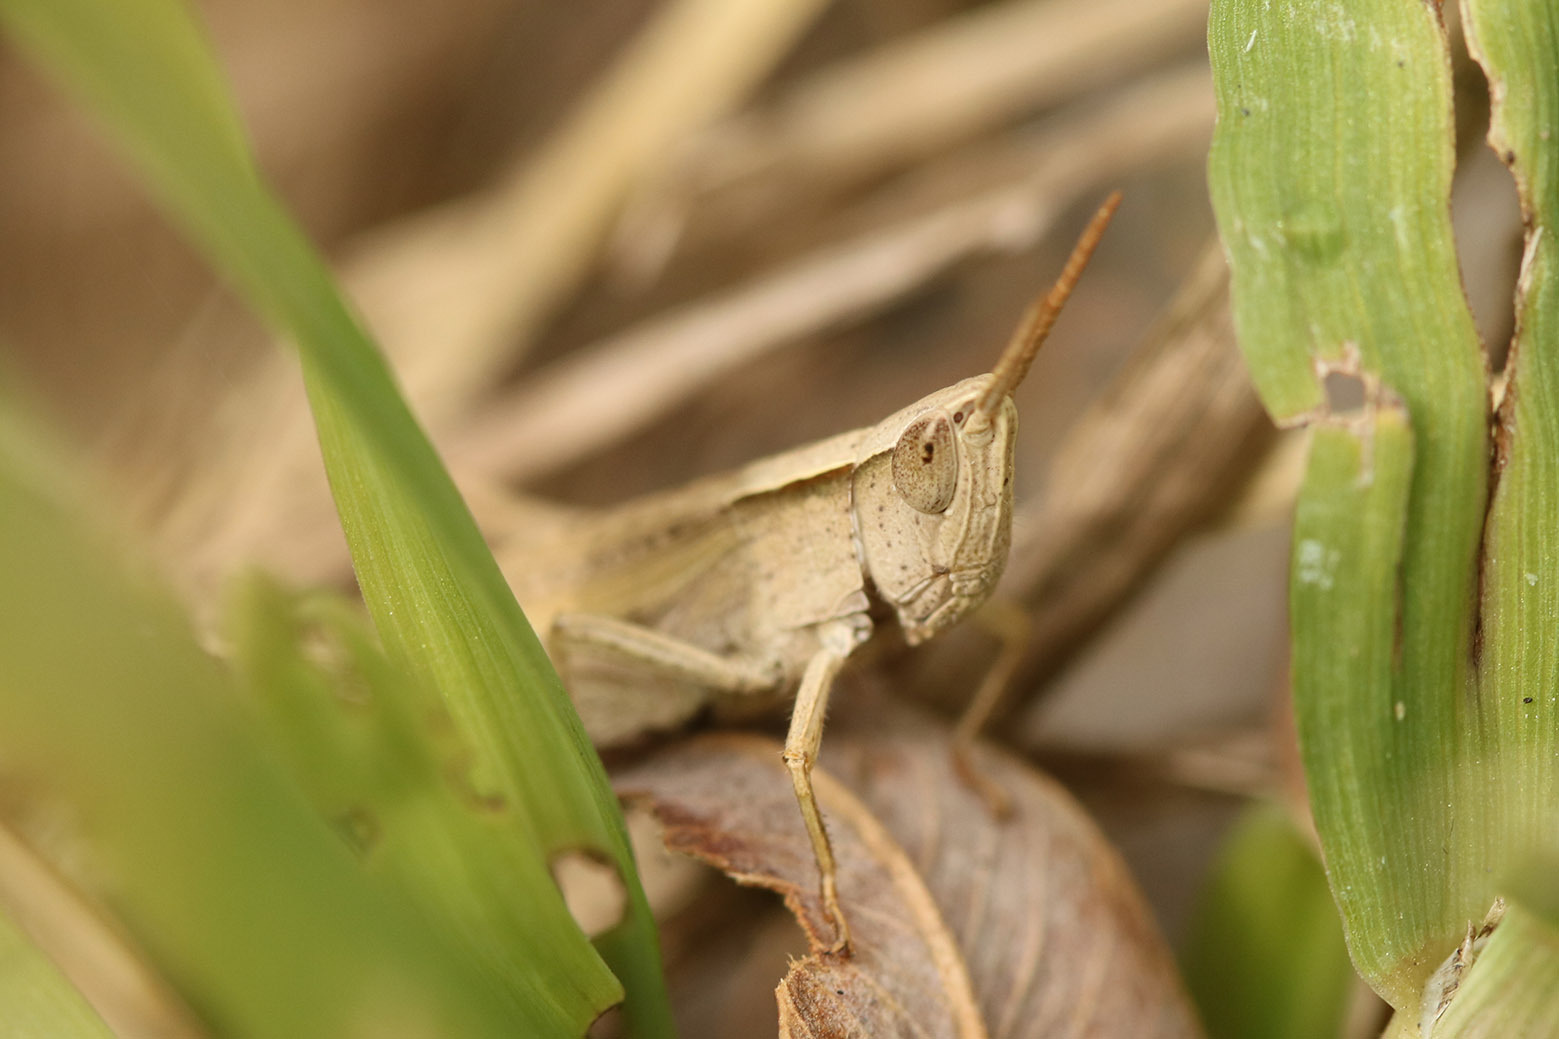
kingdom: Animalia
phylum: Arthropoda
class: Insecta
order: Orthoptera
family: Acrididae
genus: Laplatacris
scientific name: Laplatacris dispar
